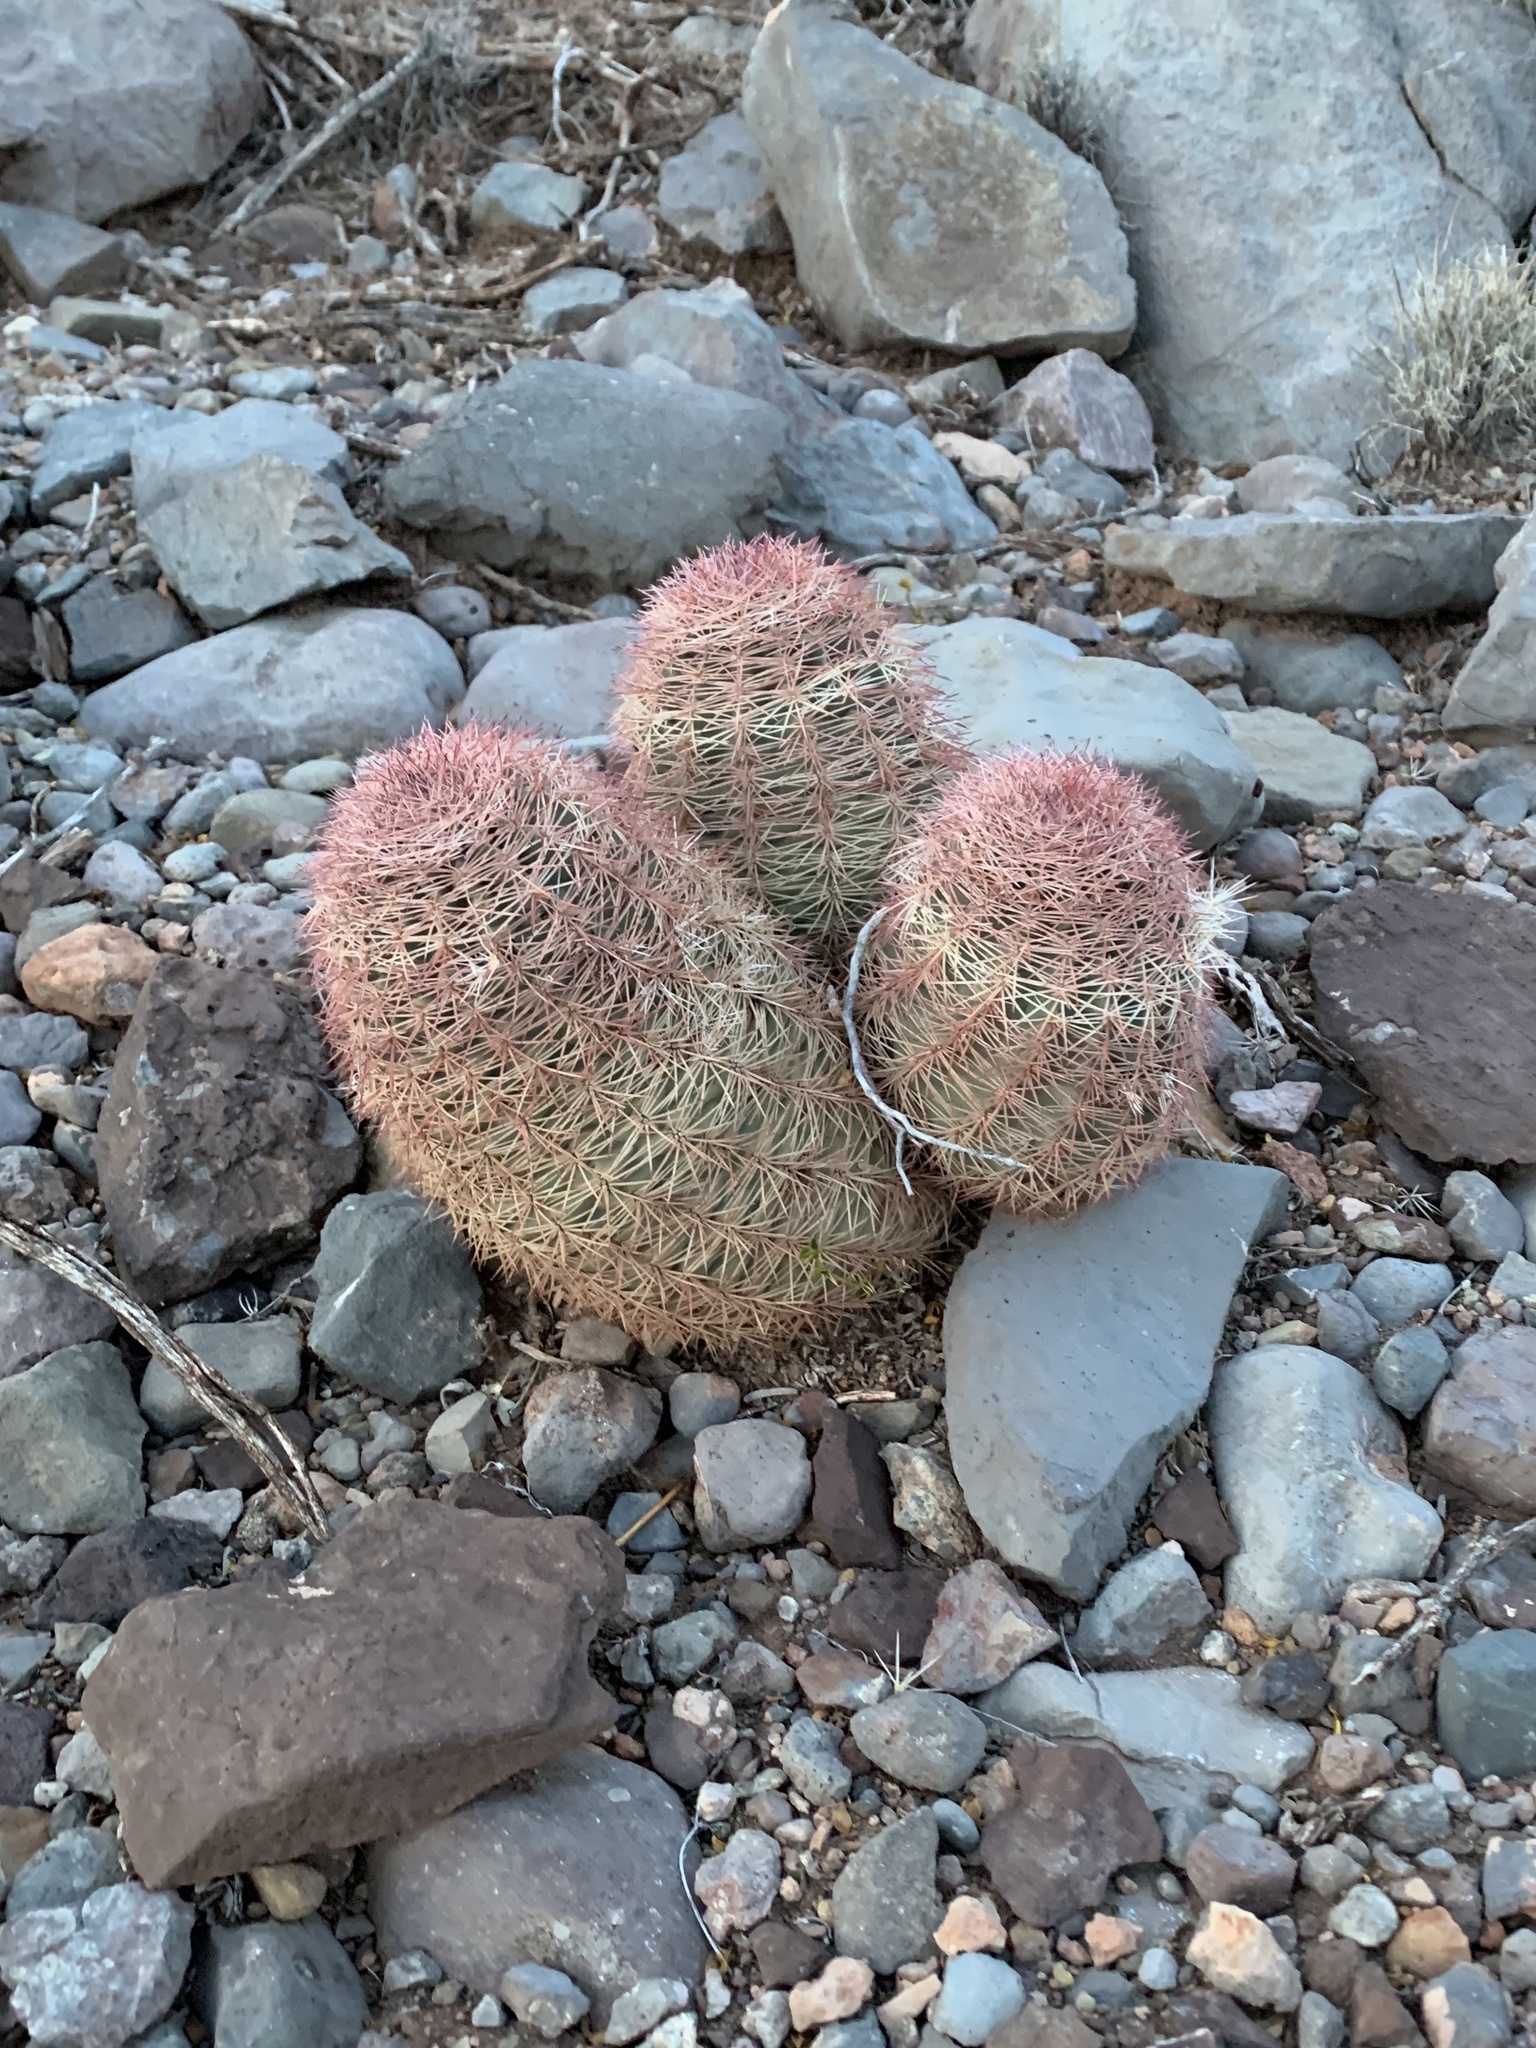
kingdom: Plantae
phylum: Tracheophyta
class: Magnoliopsida
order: Caryophyllales
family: Cactaceae
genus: Echinocereus
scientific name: Echinocereus dasyacanthus
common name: Spiny hedgehog cactus
